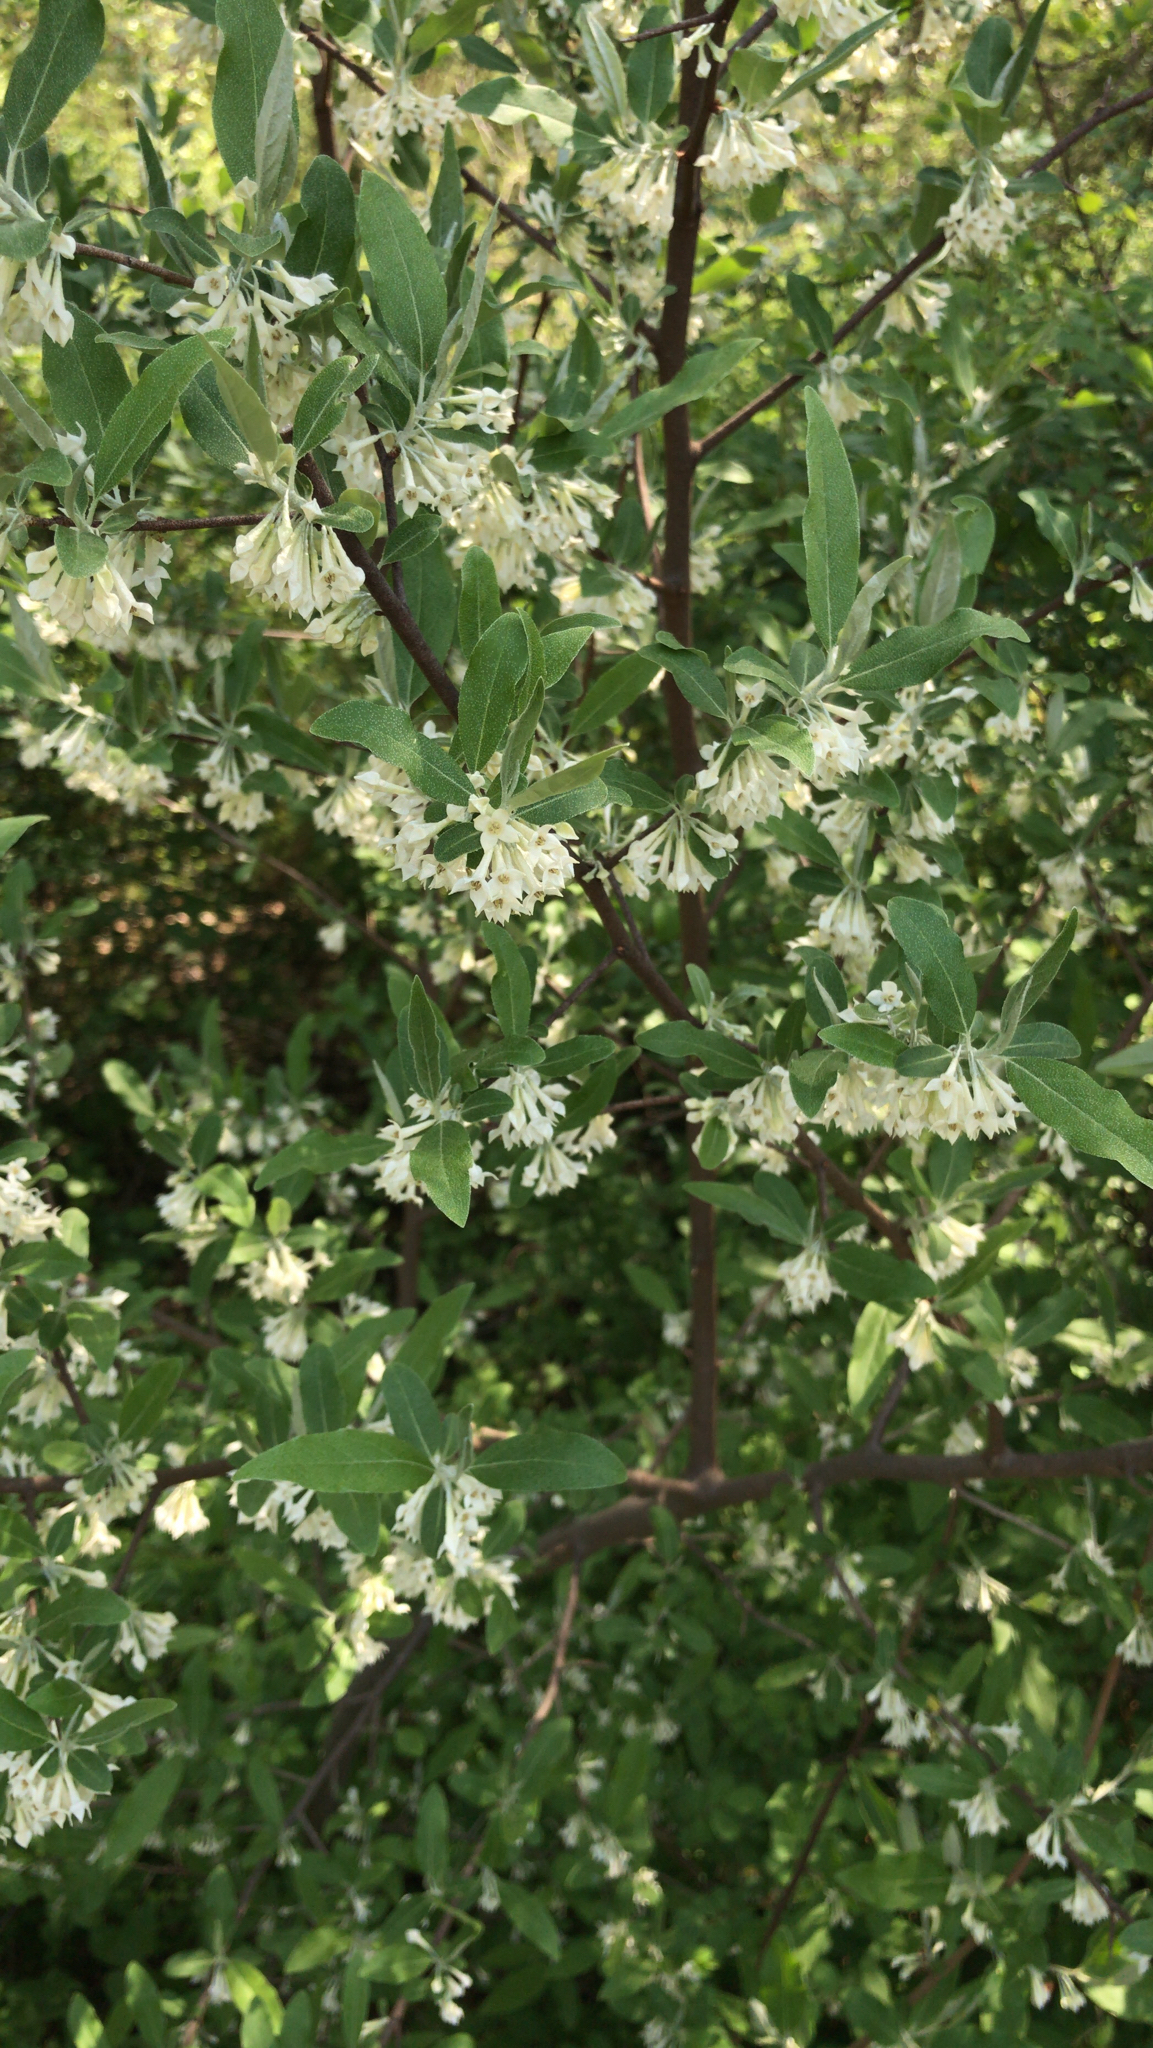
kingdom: Plantae
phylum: Tracheophyta
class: Magnoliopsida
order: Rosales
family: Elaeagnaceae
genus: Elaeagnus
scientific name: Elaeagnus umbellata
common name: Autumn olive
